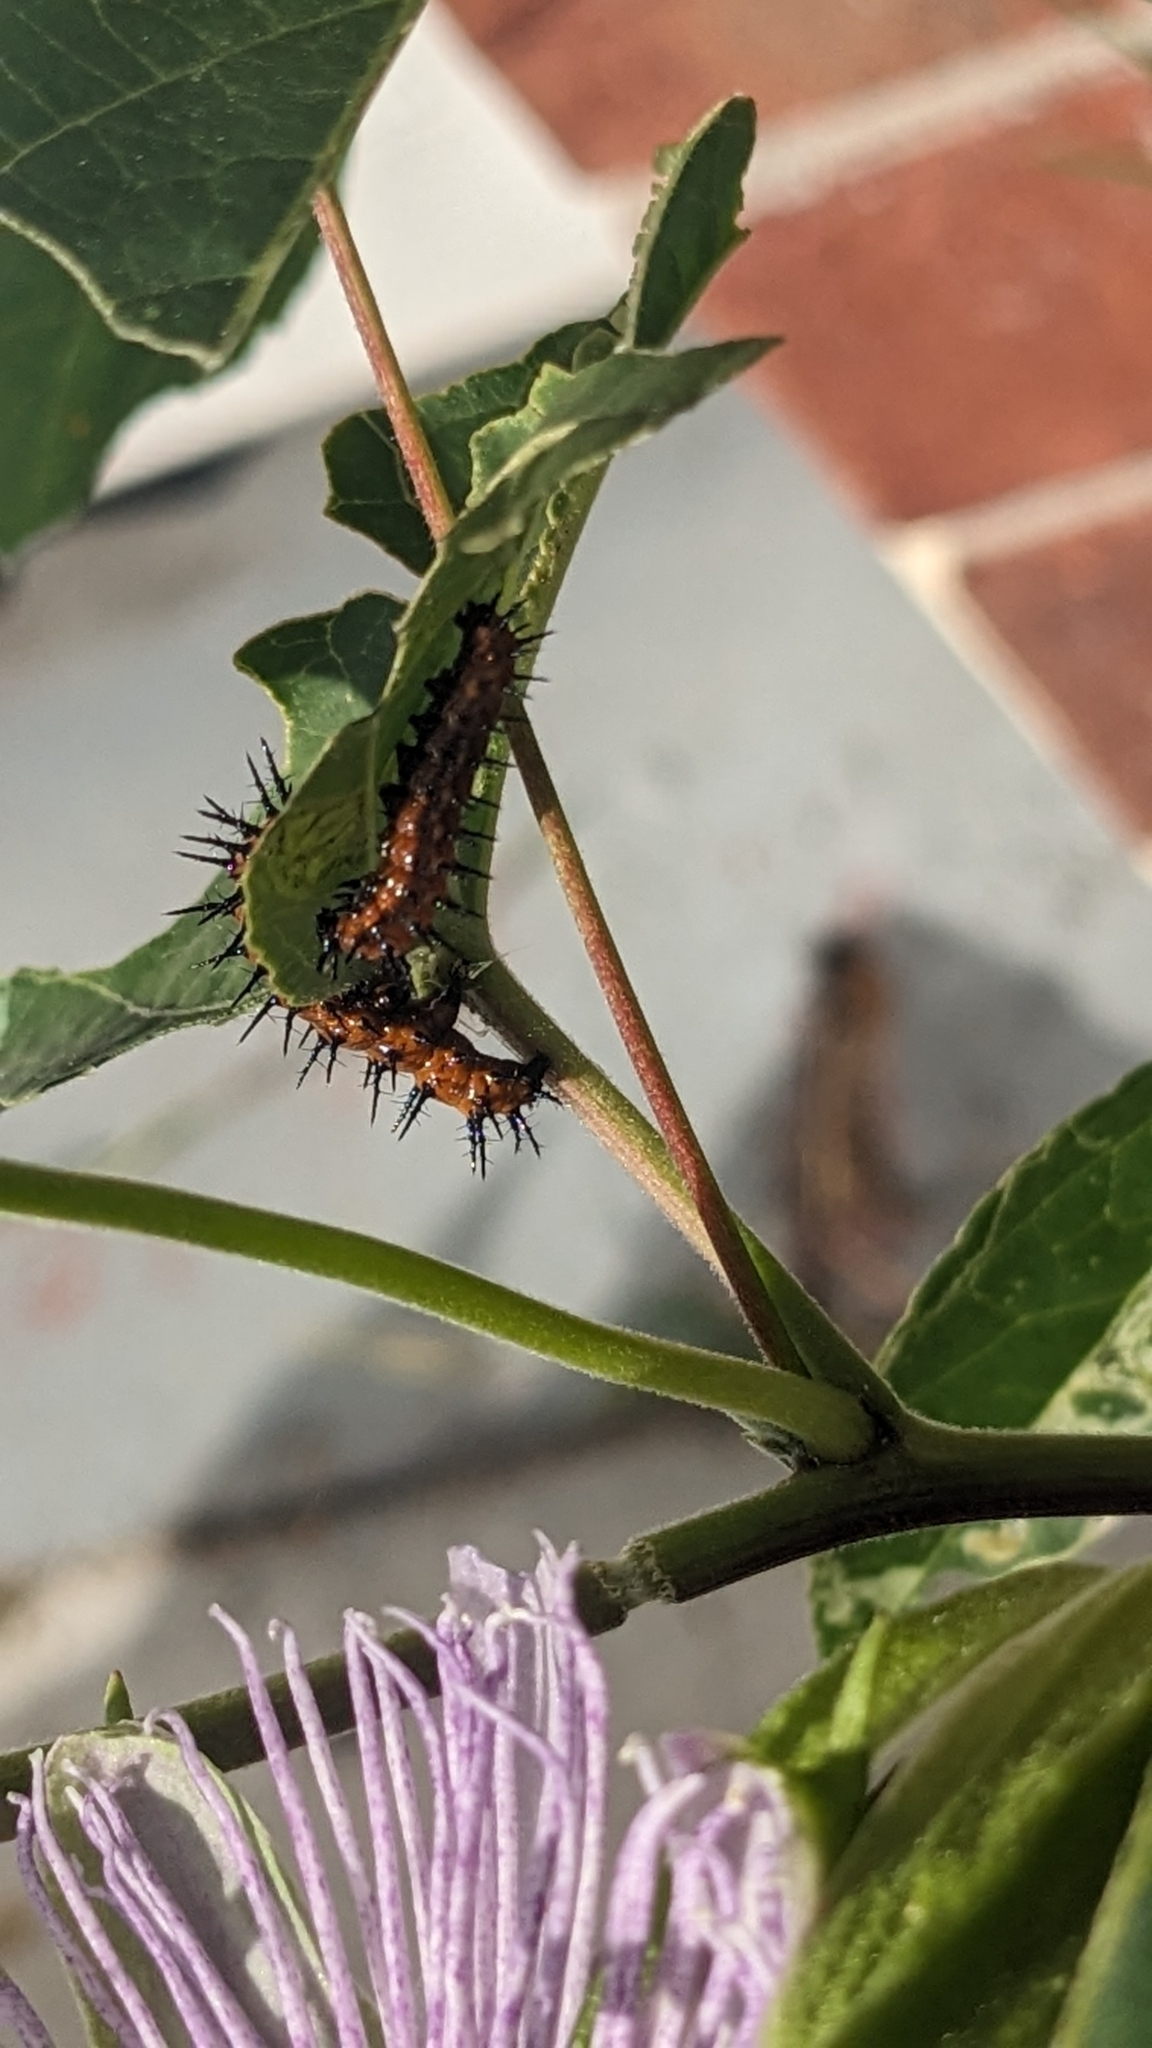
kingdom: Animalia
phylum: Arthropoda
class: Insecta
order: Lepidoptera
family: Nymphalidae
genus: Dione
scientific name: Dione vanillae
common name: Gulf fritillary
